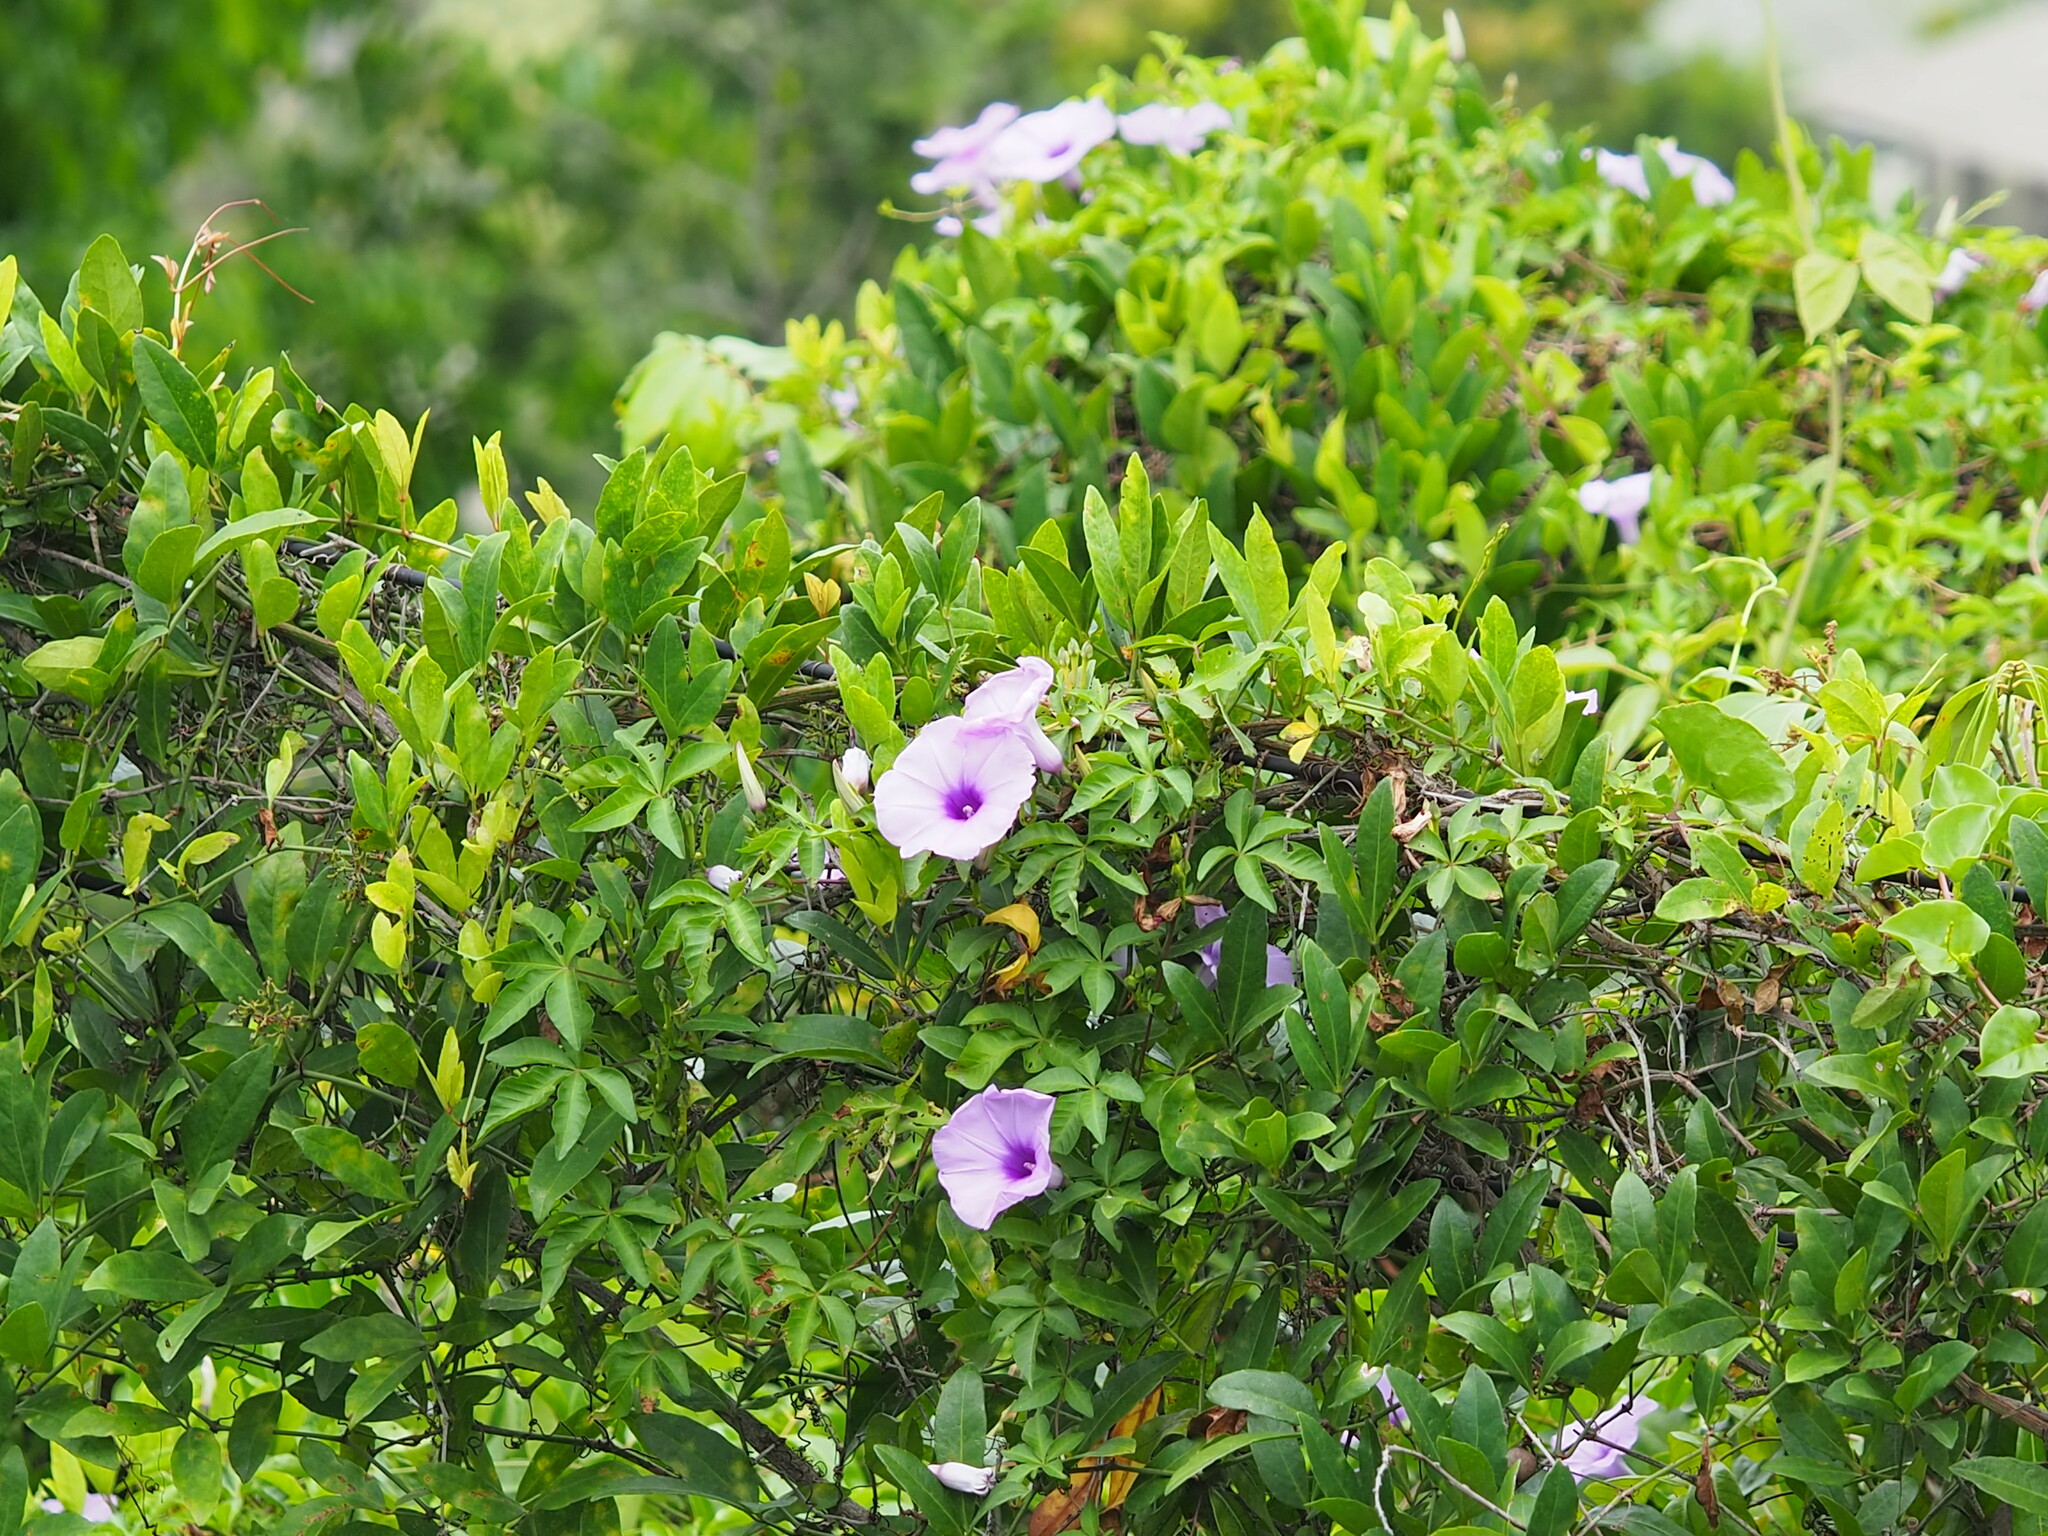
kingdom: Plantae
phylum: Tracheophyta
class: Magnoliopsida
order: Solanales
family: Convolvulaceae
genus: Ipomoea
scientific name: Ipomoea cairica
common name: Mile a minute vine
